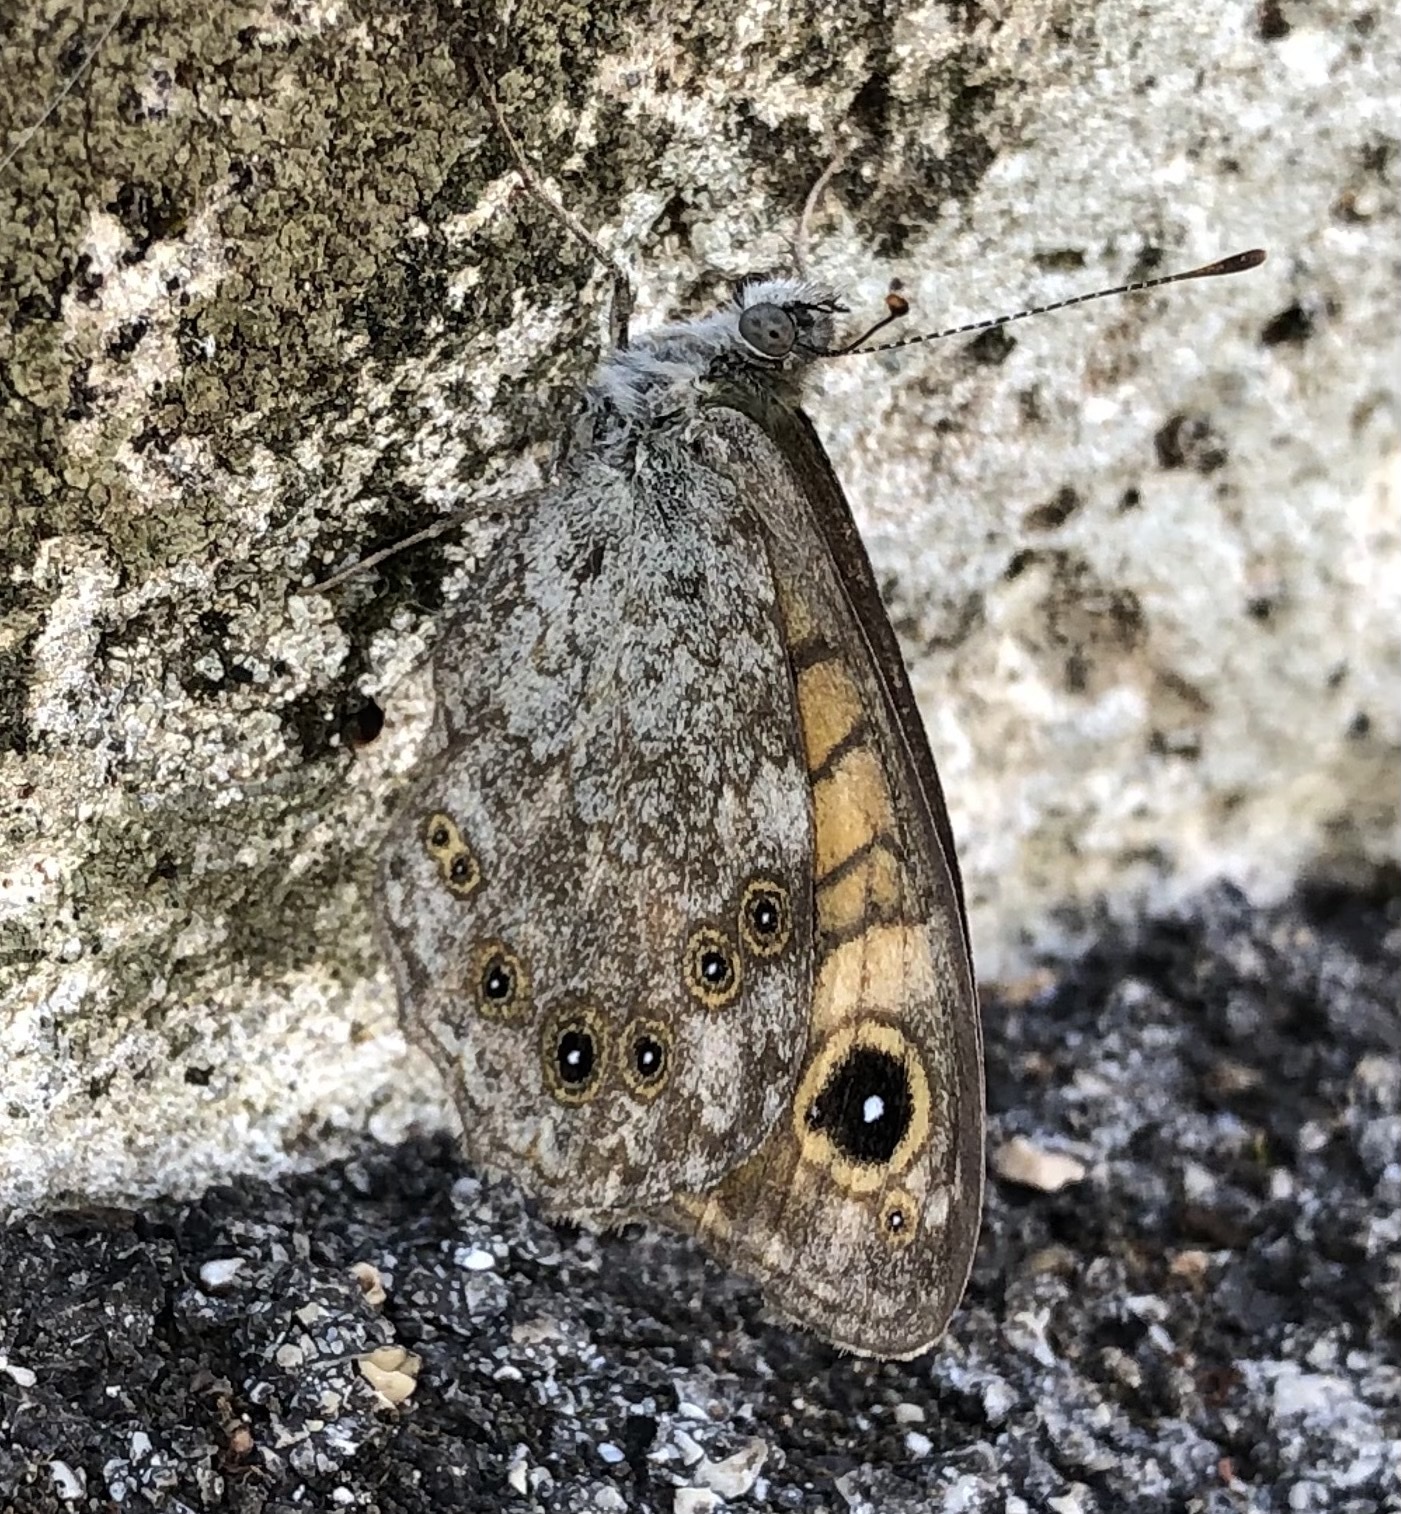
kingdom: Animalia
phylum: Arthropoda
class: Insecta
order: Lepidoptera
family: Nymphalidae
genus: Pararge
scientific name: Pararge Lasiommata megera
